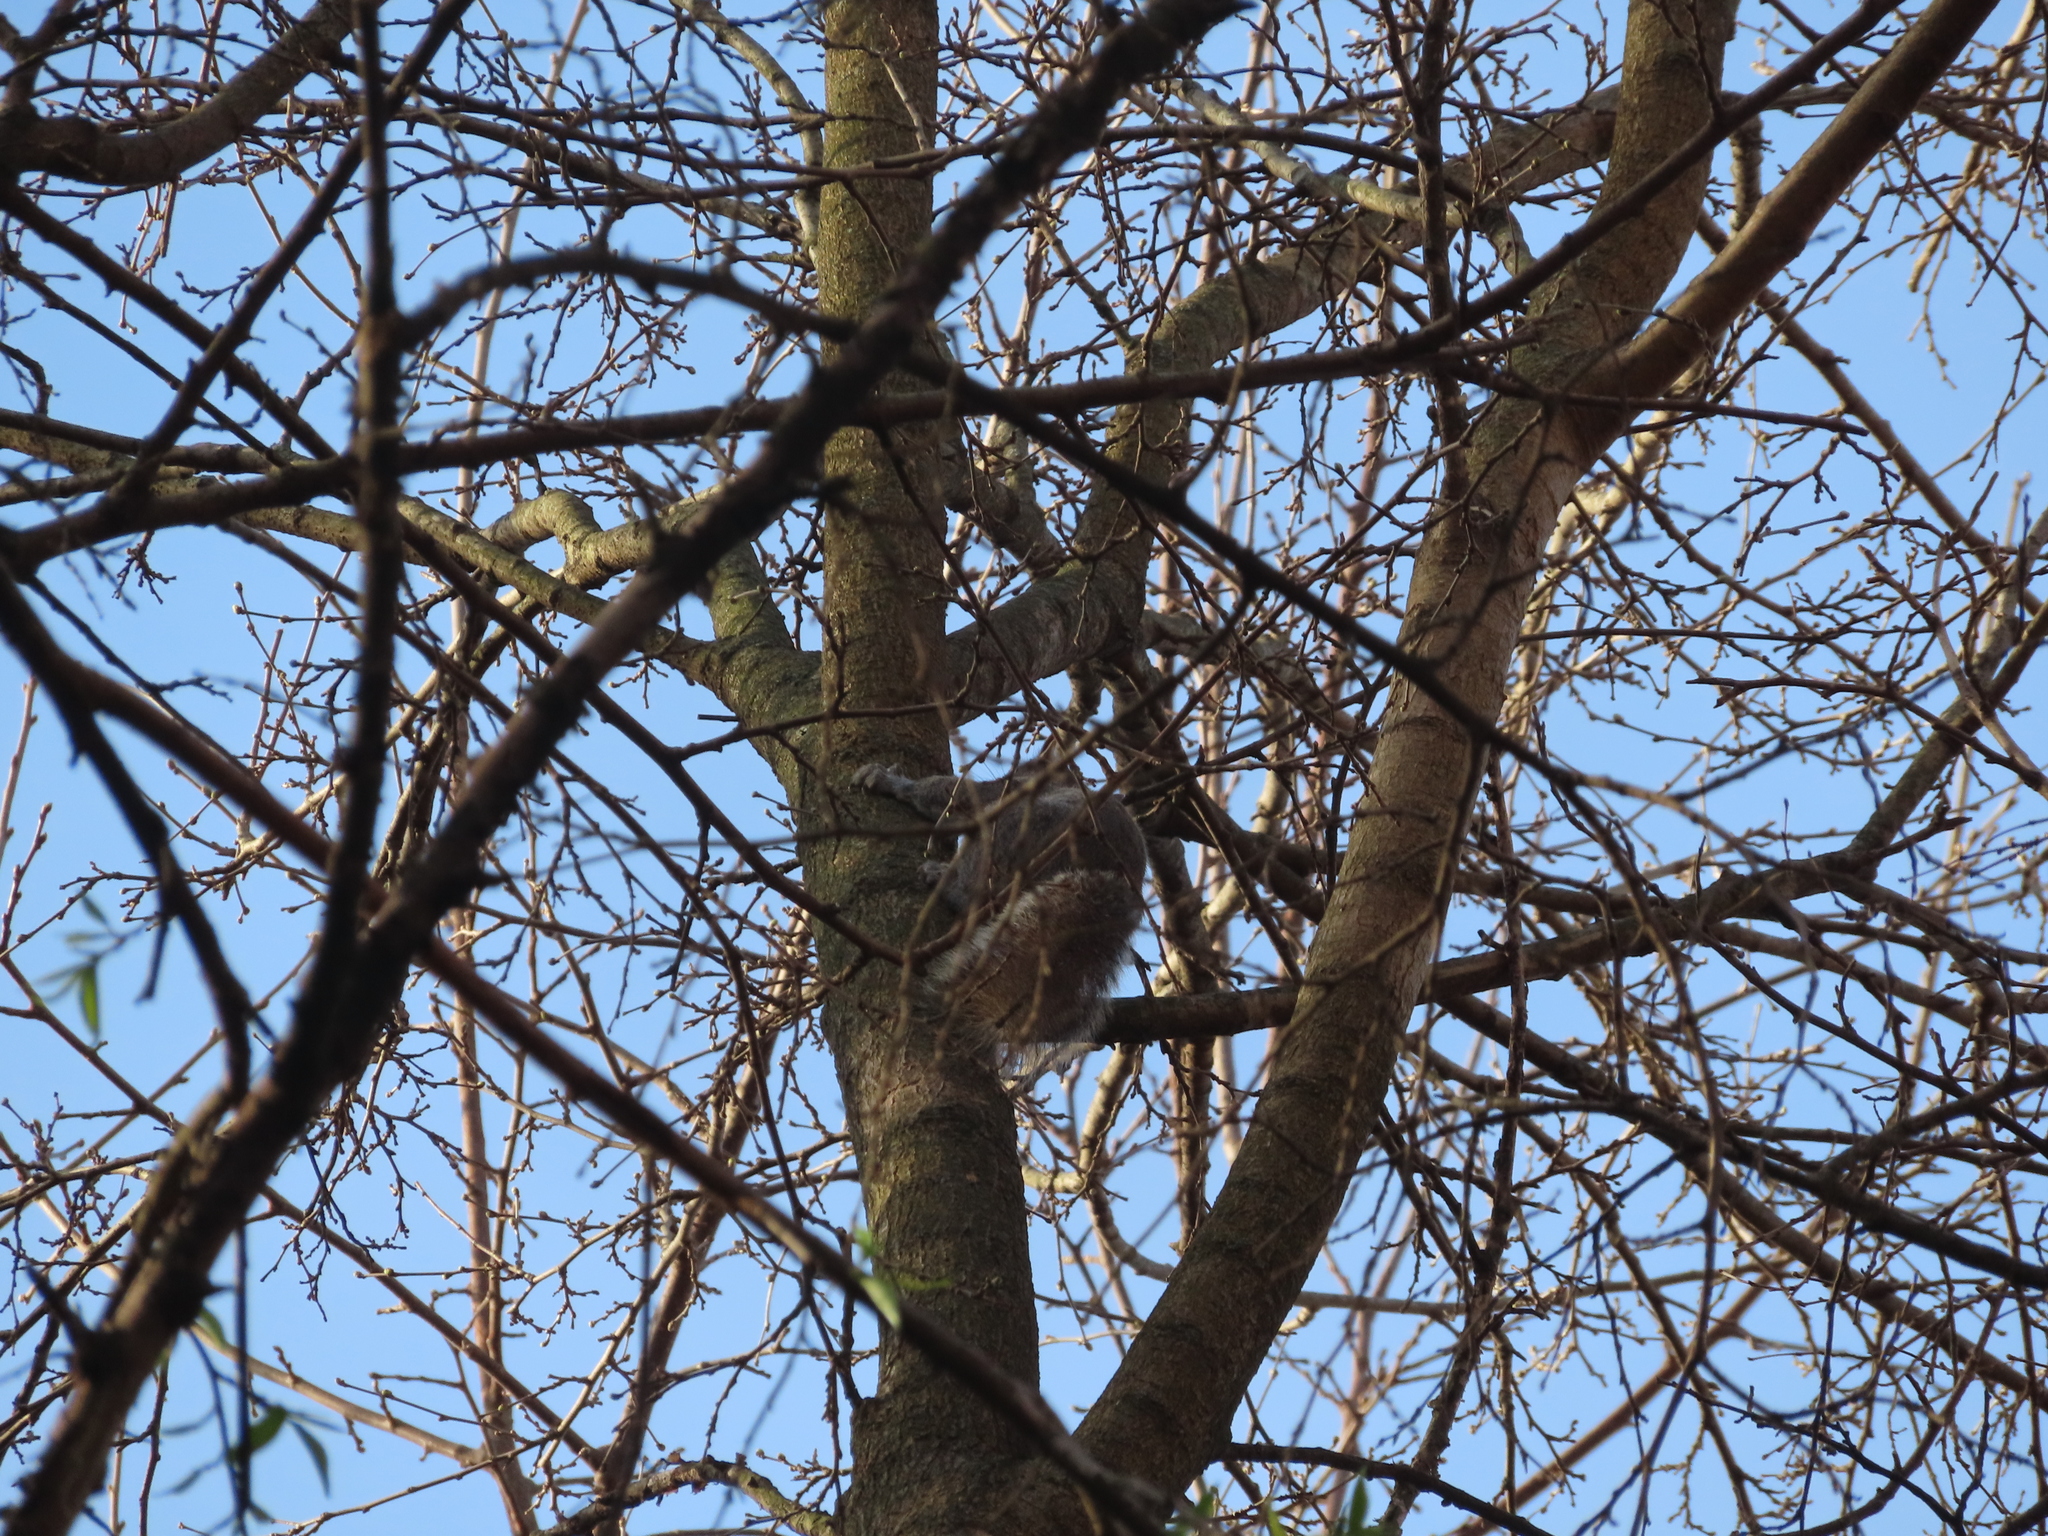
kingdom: Animalia
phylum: Chordata
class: Mammalia
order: Rodentia
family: Sciuridae
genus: Sciurus
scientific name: Sciurus carolinensis
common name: Eastern gray squirrel
